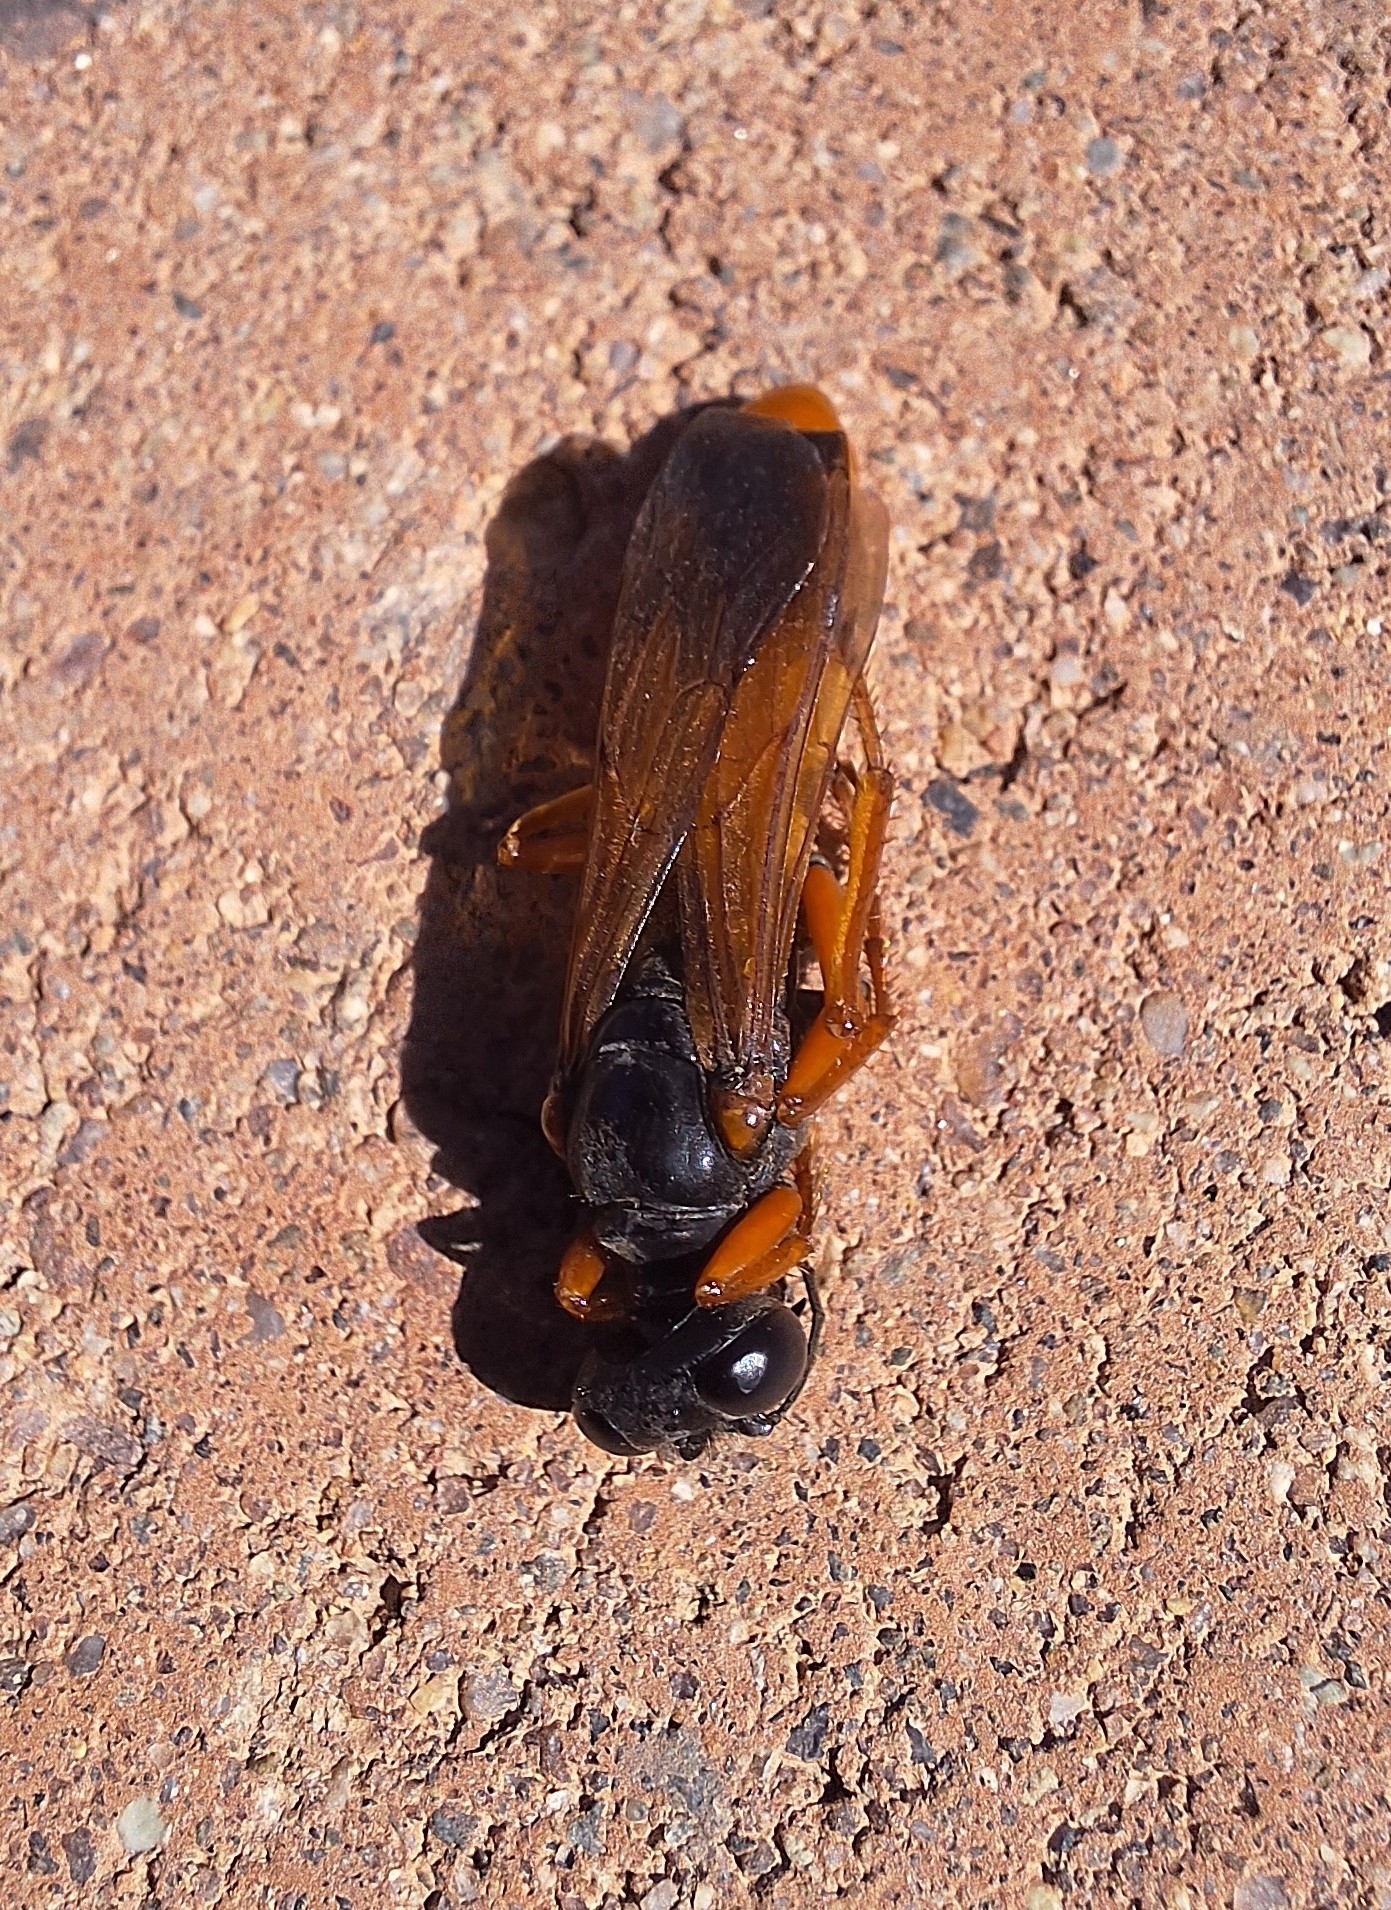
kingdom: Animalia
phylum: Arthropoda
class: Insecta
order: Hymenoptera
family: Sphecidae
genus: Sphex
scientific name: Sphex ashmeadi
